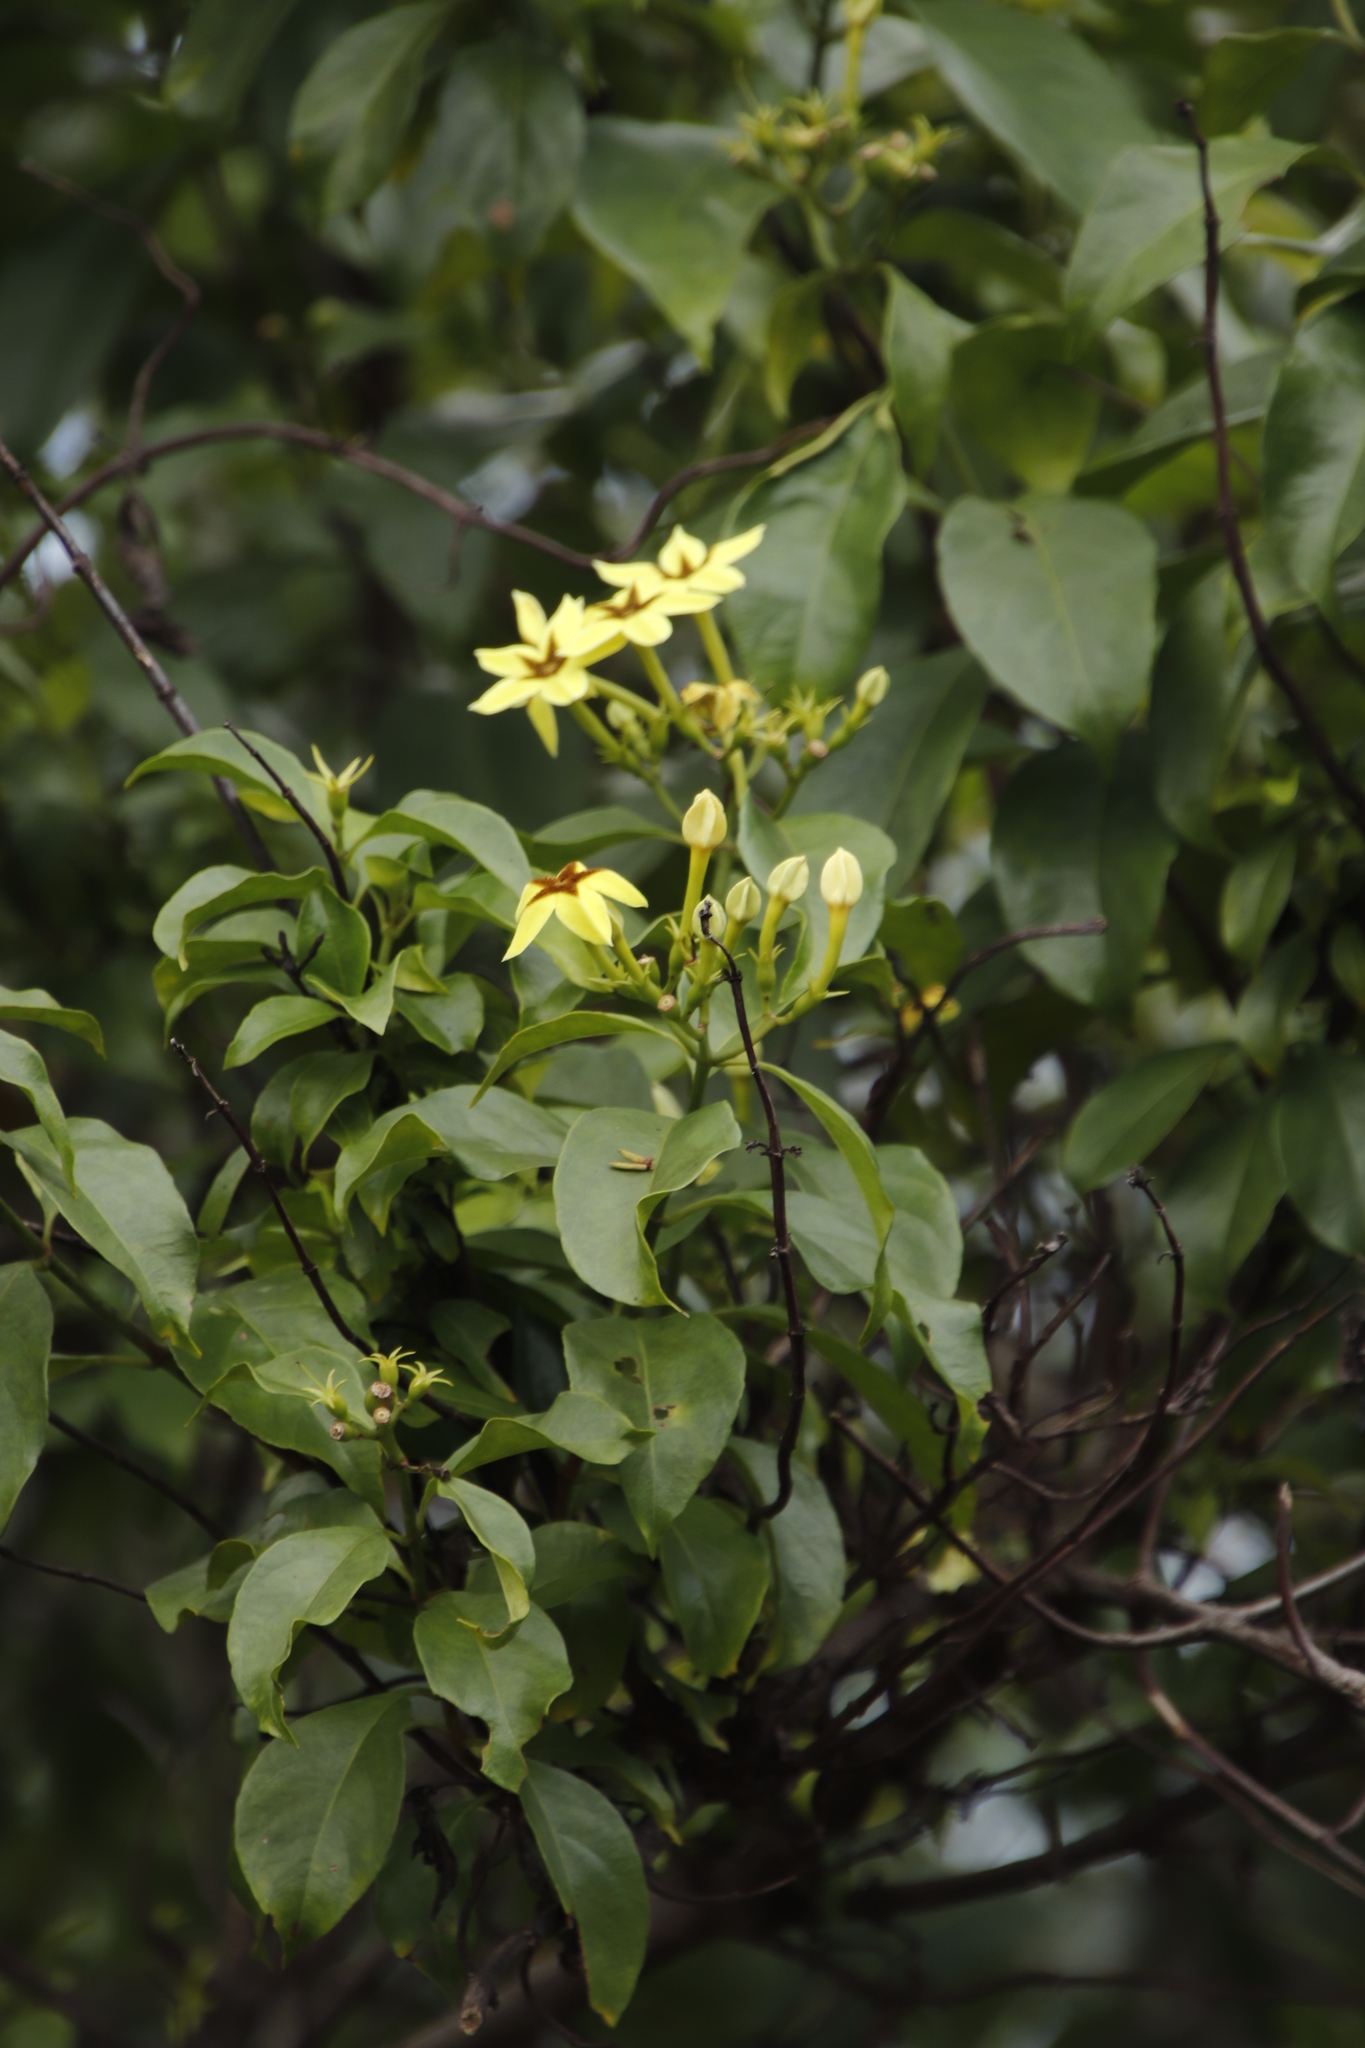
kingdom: Plantae
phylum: Tracheophyta
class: Magnoliopsida
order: Gentianales
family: Rubiaceae
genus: Mussaenda
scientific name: Mussaenda arcuata
